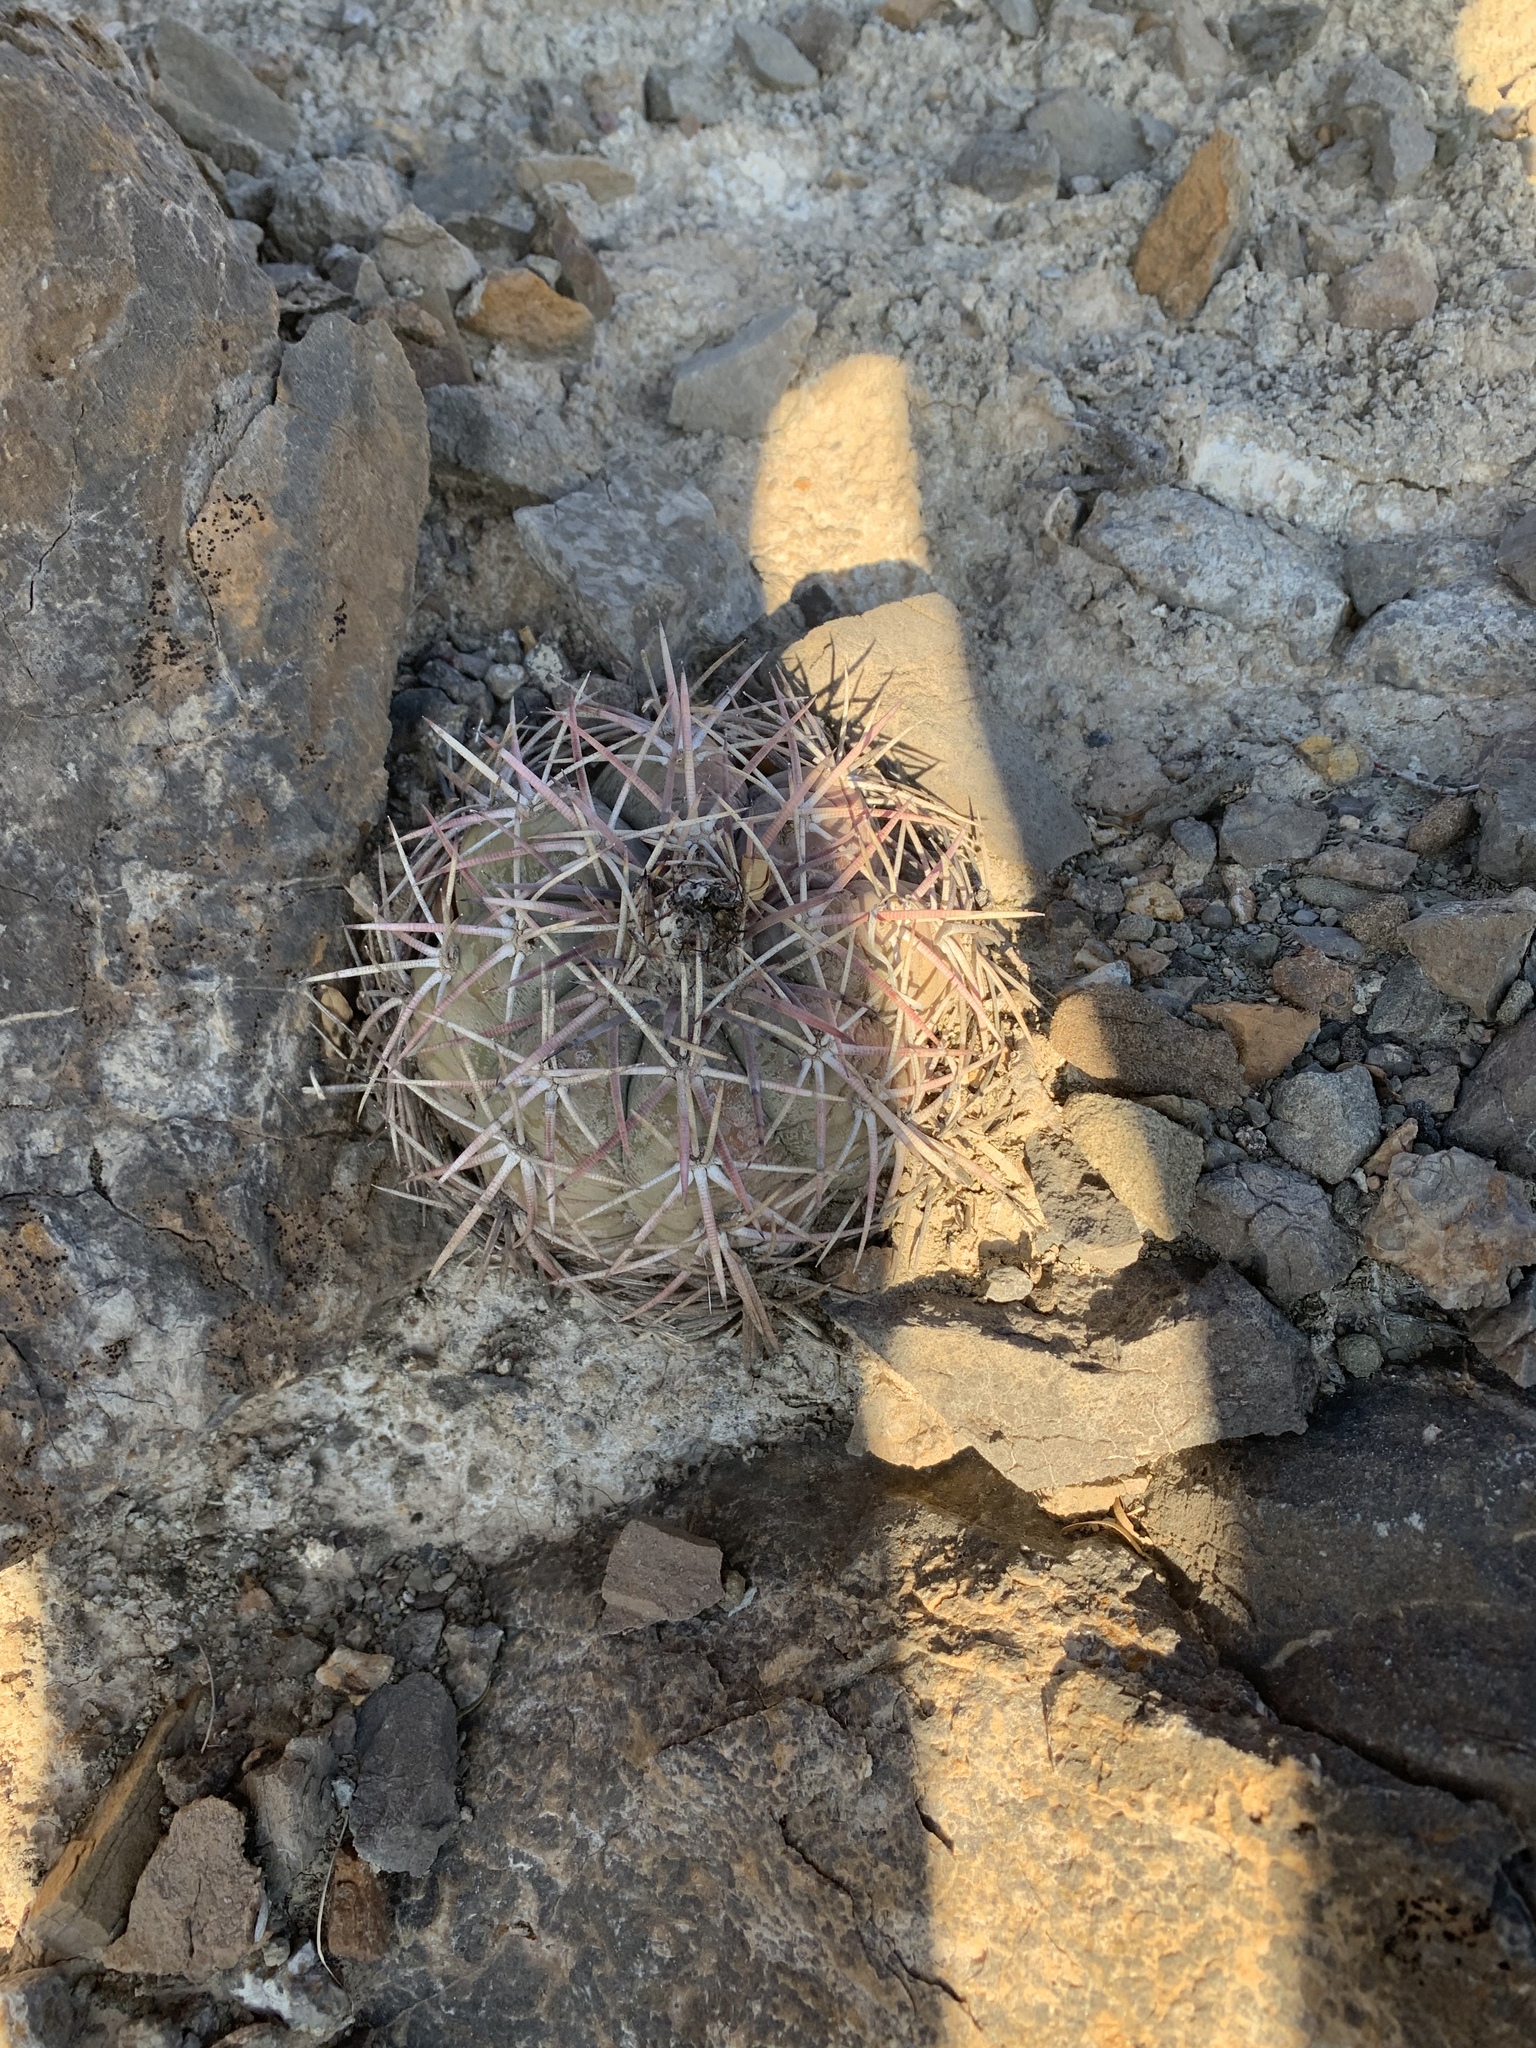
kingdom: Plantae
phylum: Tracheophyta
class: Magnoliopsida
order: Caryophyllales
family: Cactaceae
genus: Echinocactus
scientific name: Echinocactus horizonthalonius
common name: Devilshead
